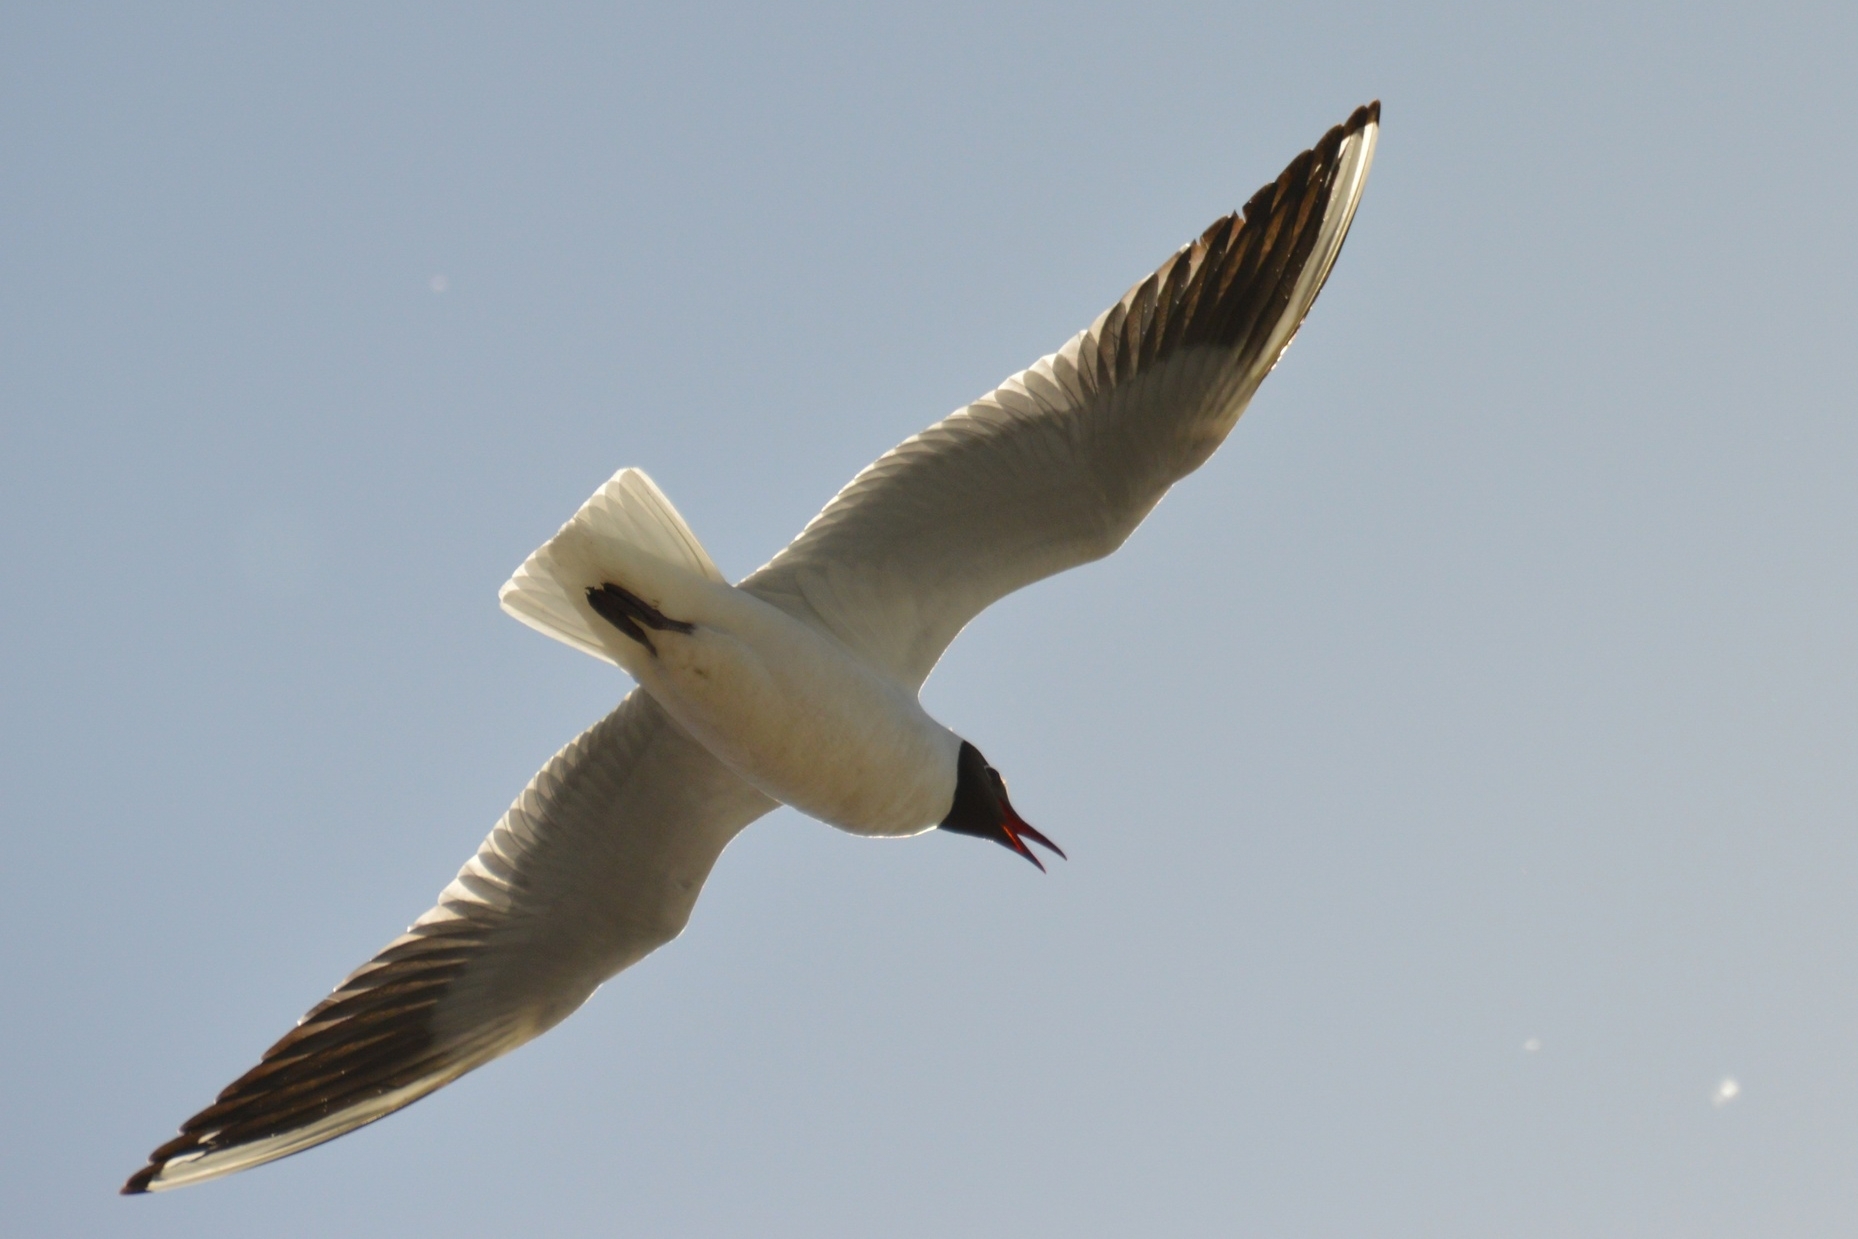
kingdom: Animalia
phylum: Chordata
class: Aves
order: Charadriiformes
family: Laridae
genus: Chroicocephalus
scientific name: Chroicocephalus ridibundus
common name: Black-headed gull
